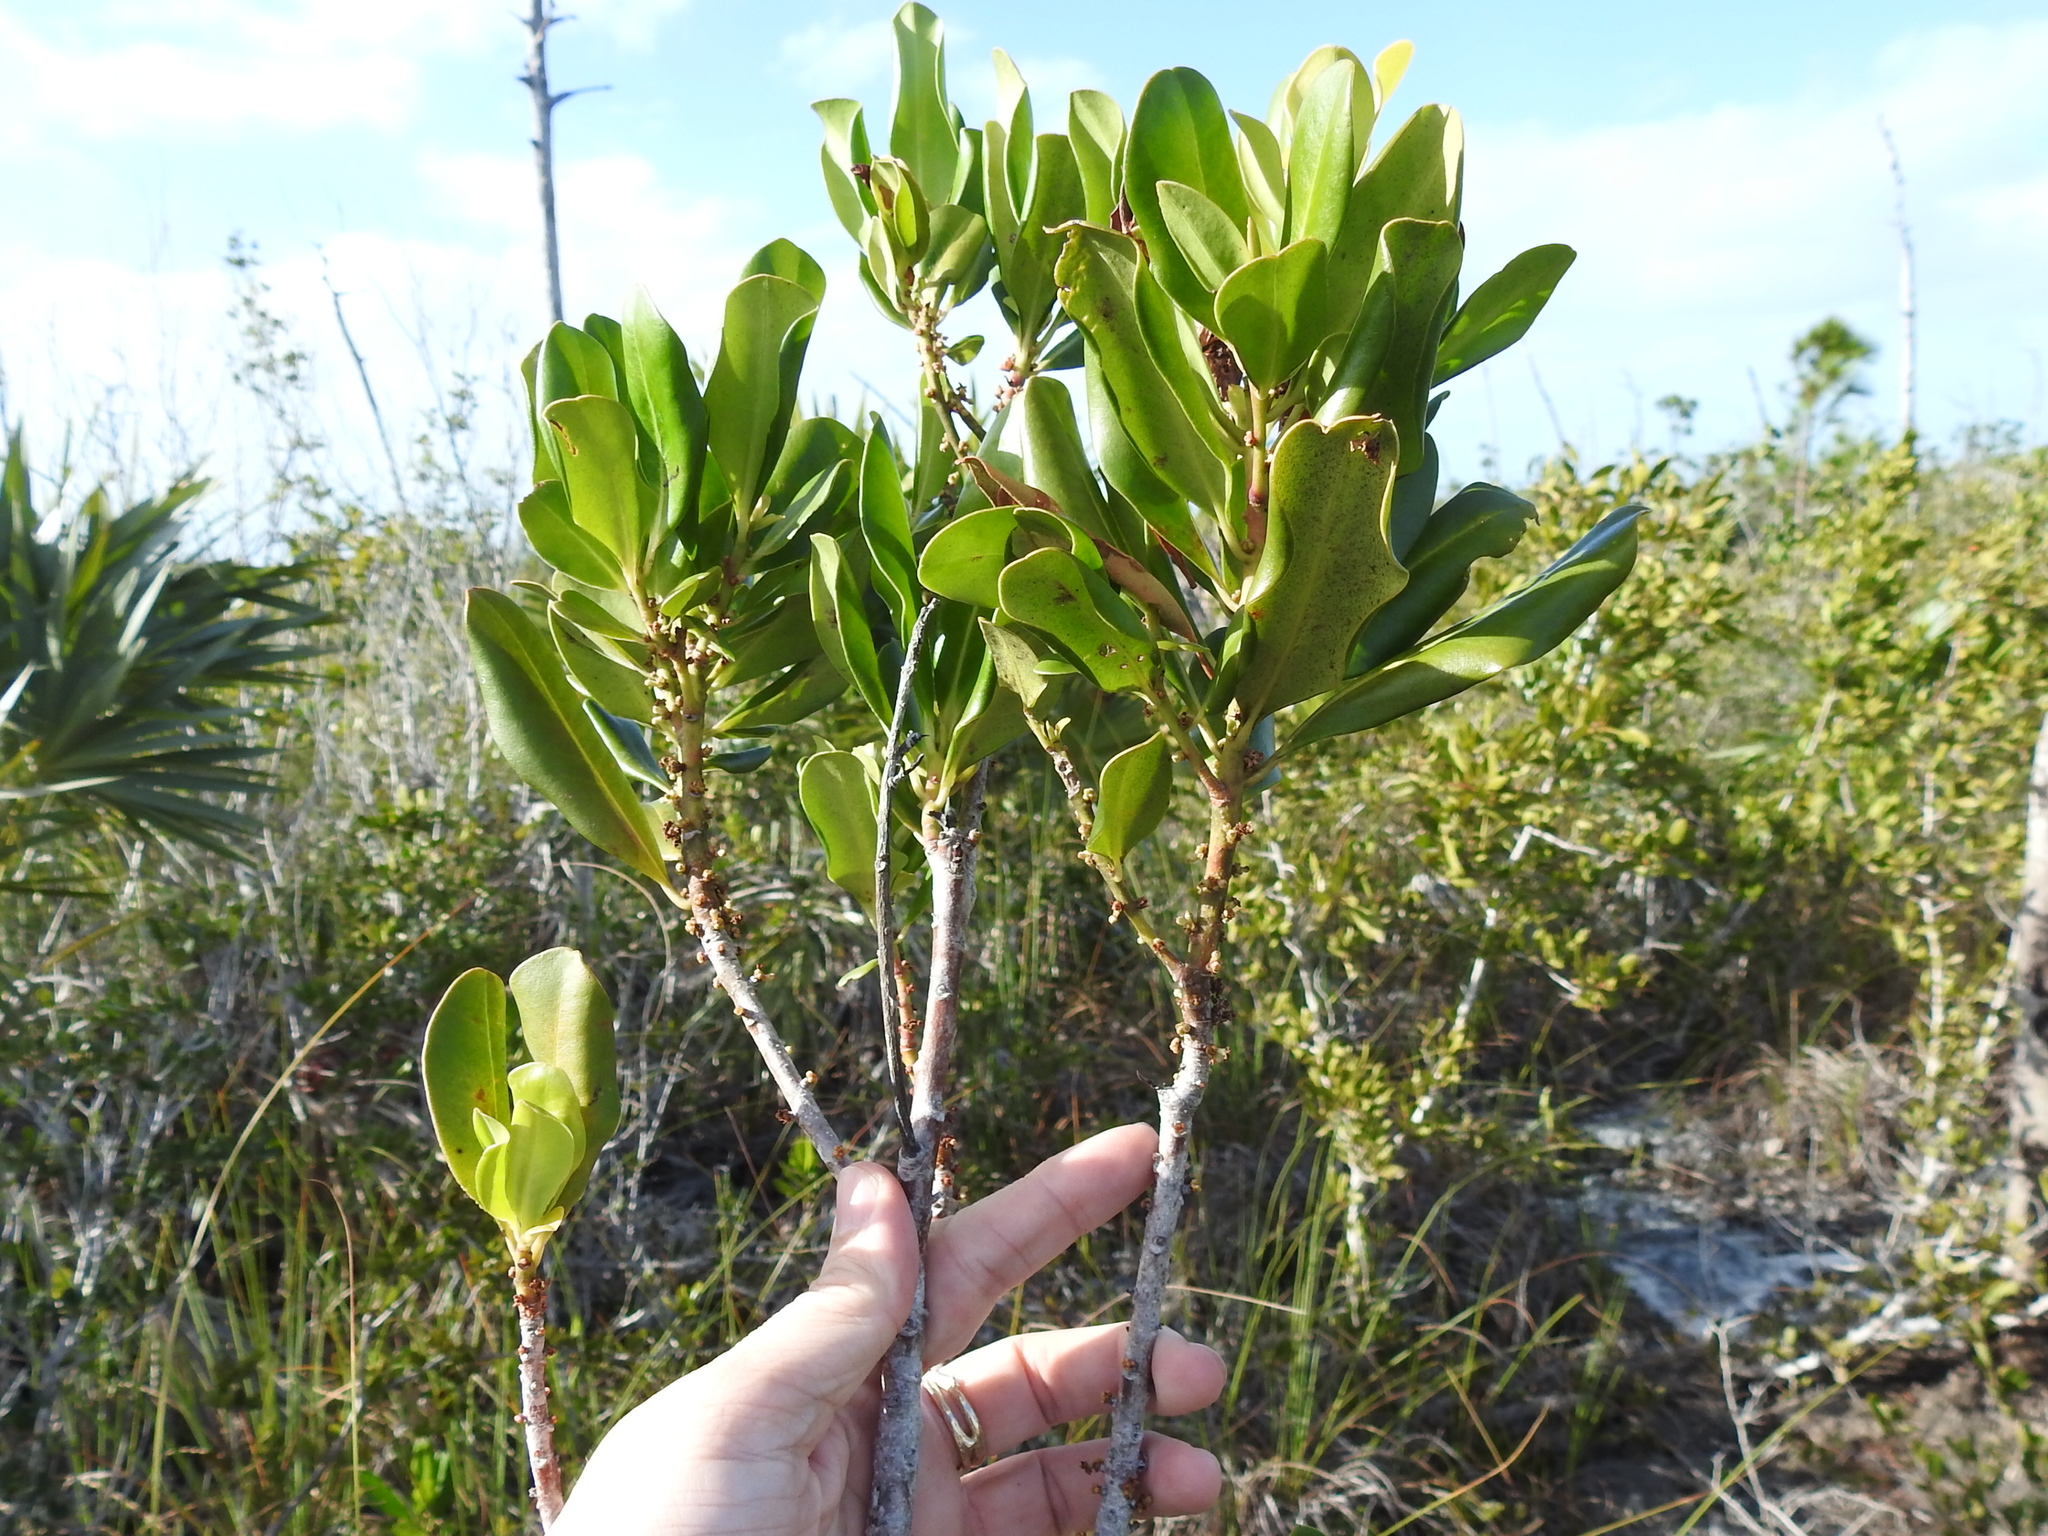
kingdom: Plantae
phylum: Tracheophyta
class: Magnoliopsida
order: Ericales
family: Primulaceae
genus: Myrsine
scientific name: Myrsine floridana
